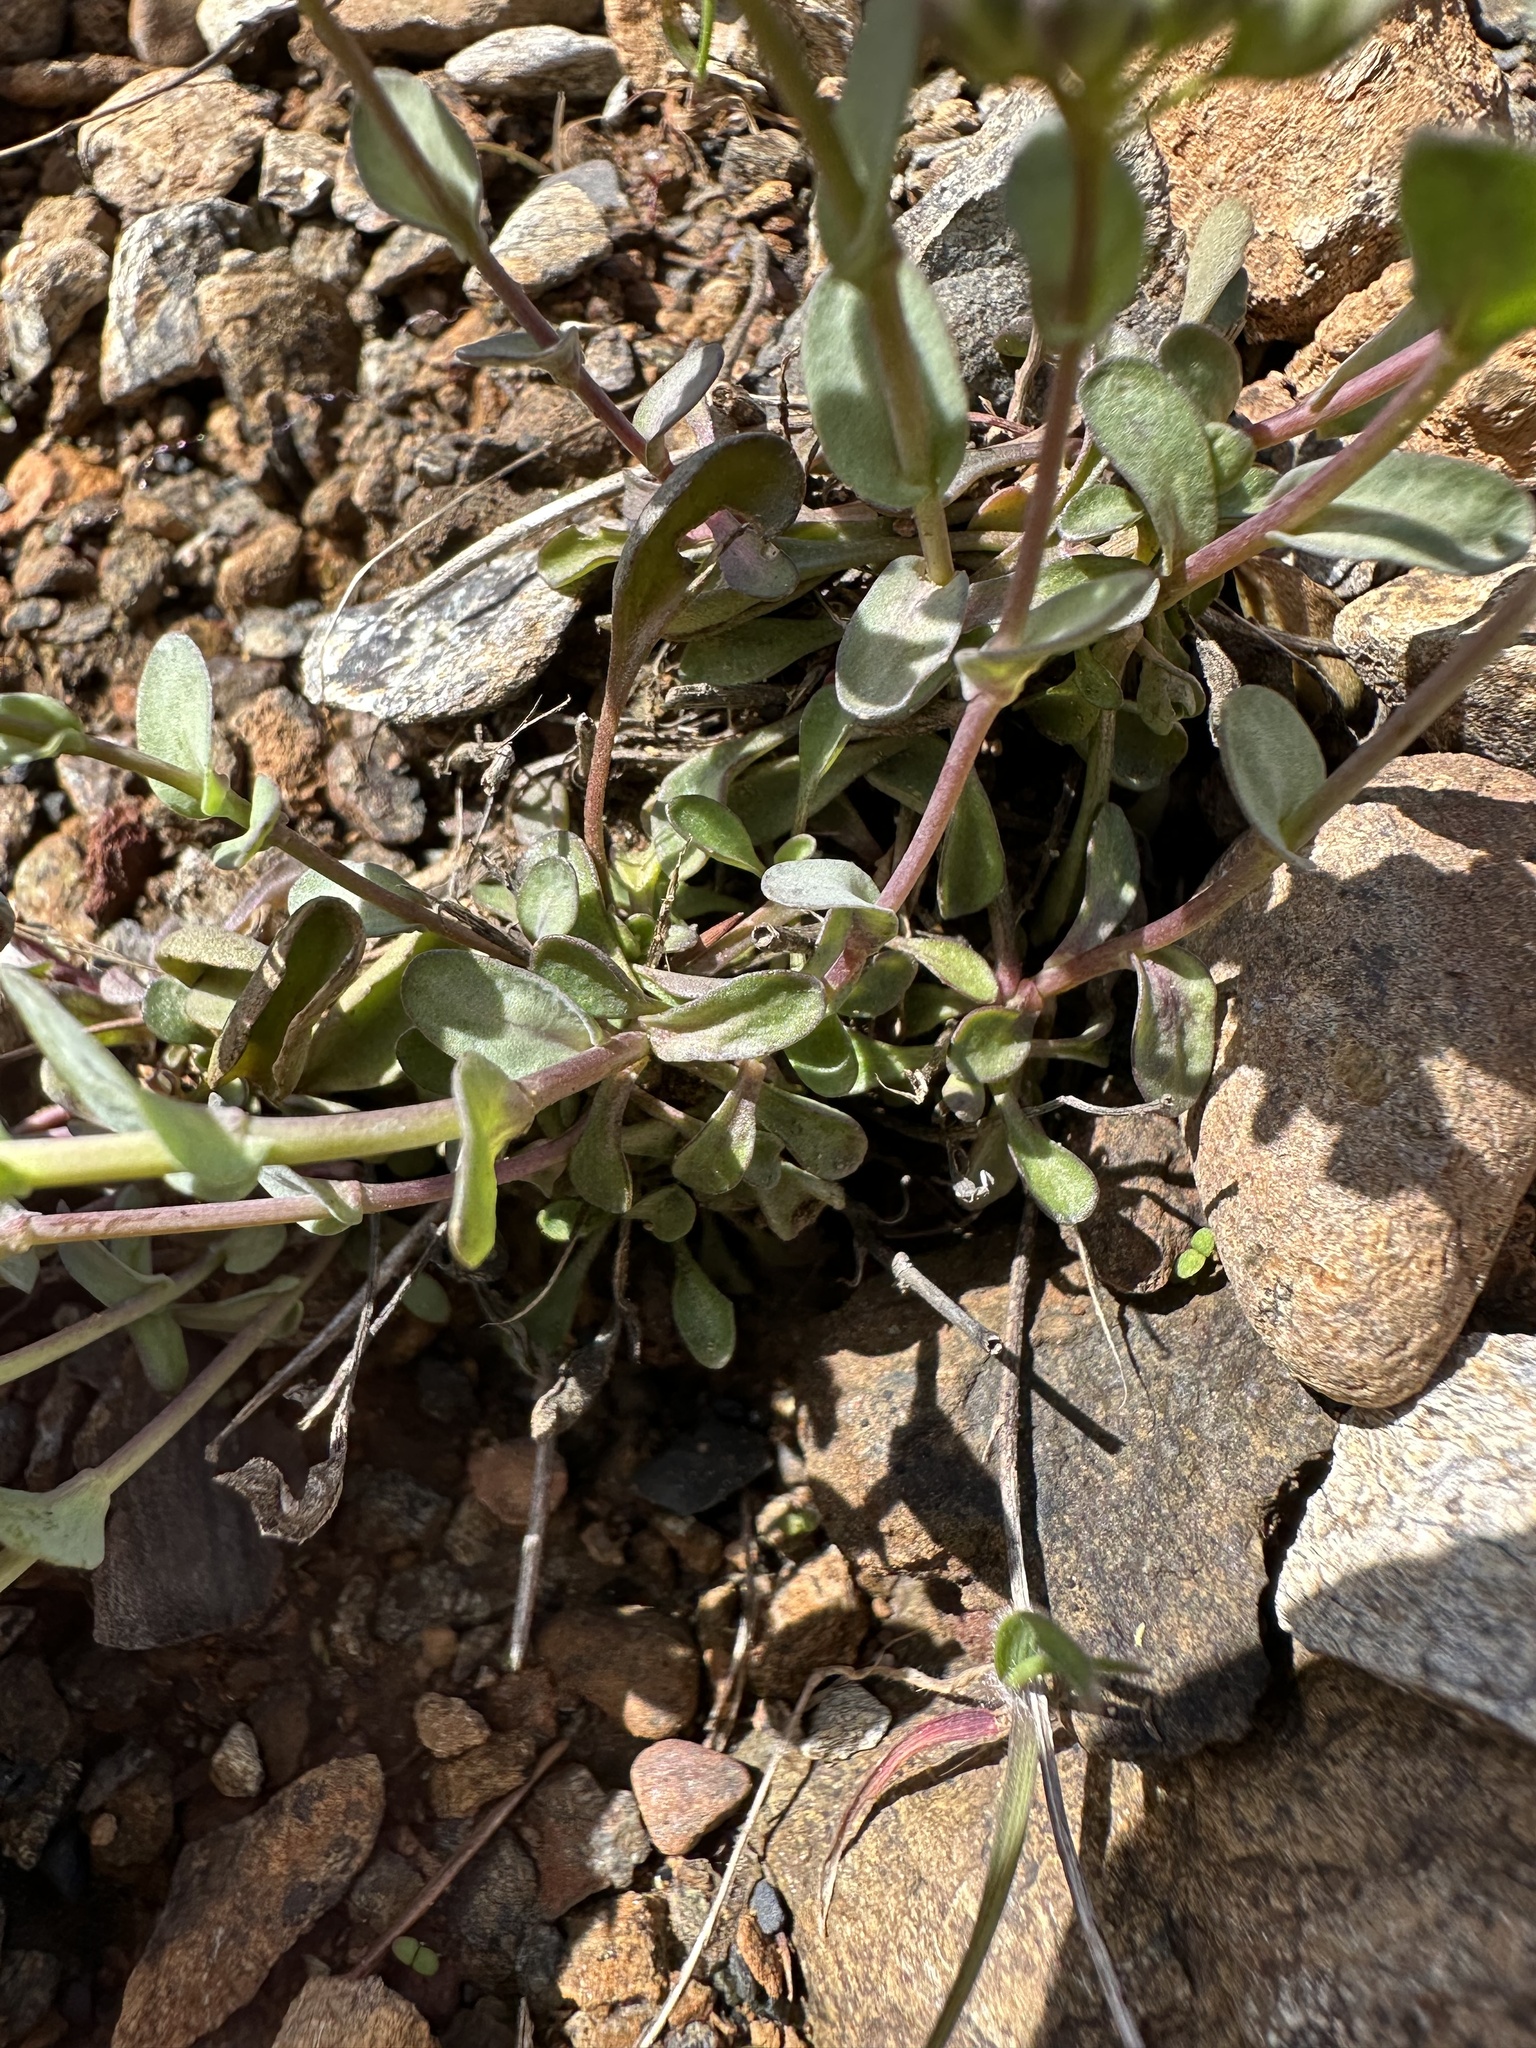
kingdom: Plantae
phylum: Tracheophyta
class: Magnoliopsida
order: Brassicales
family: Brassicaceae
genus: Noccaea
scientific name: Noccaea fendleri
